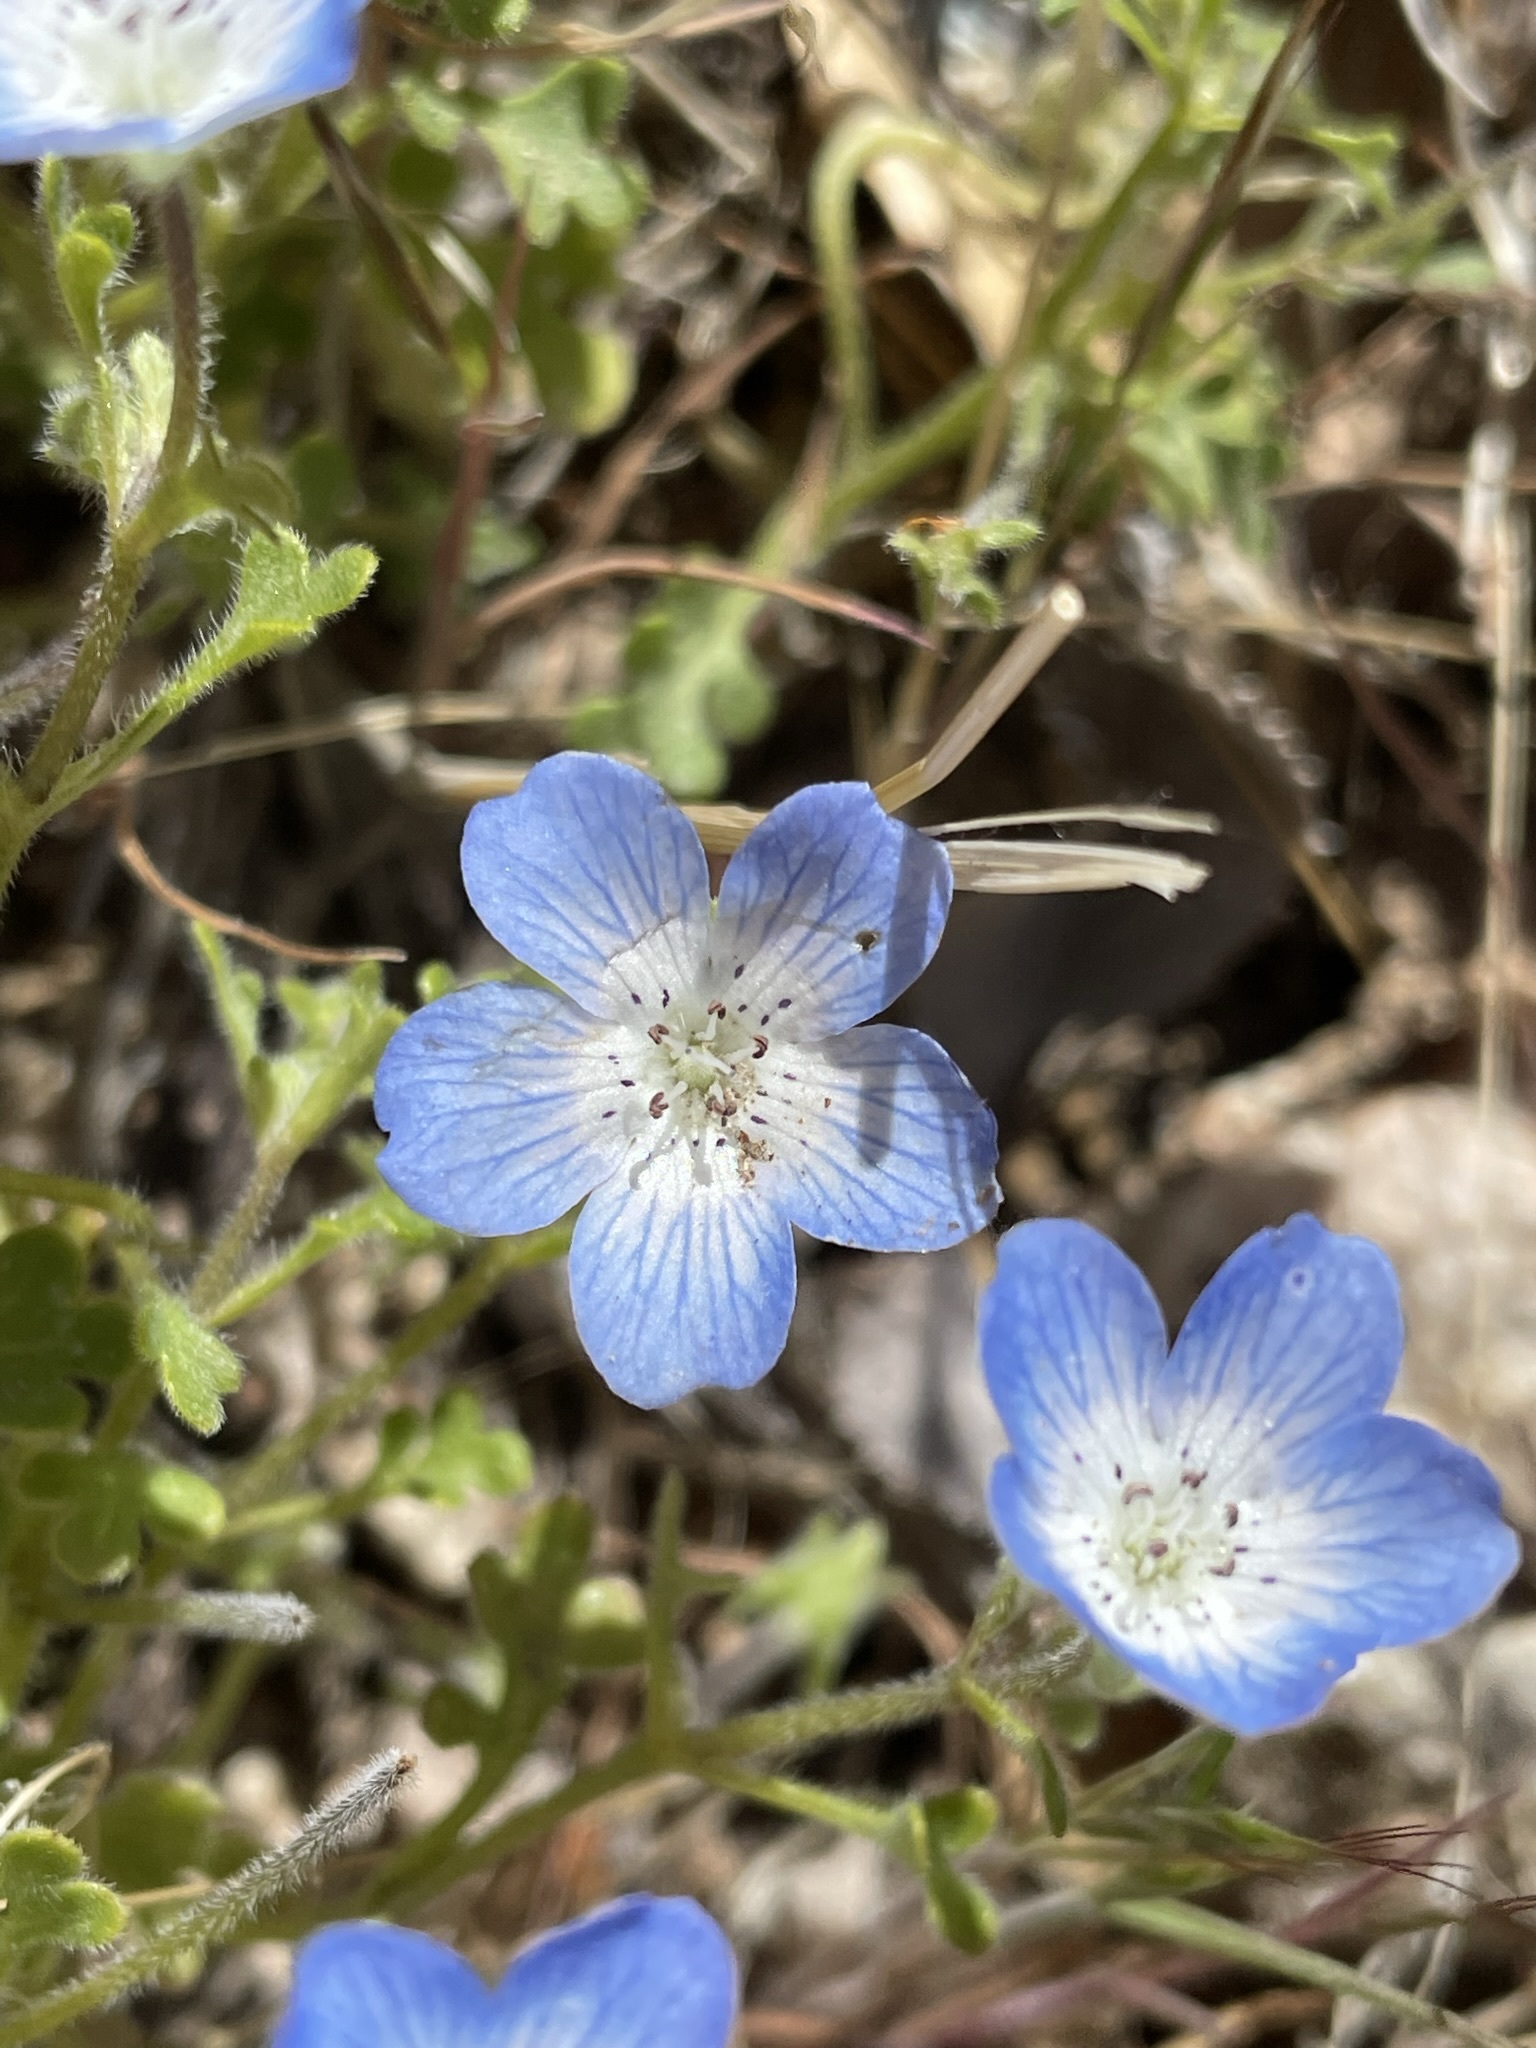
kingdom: Plantae
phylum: Tracheophyta
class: Magnoliopsida
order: Boraginales
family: Hydrophyllaceae
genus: Nemophila
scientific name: Nemophila menziesii
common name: Baby's-blue-eyes
